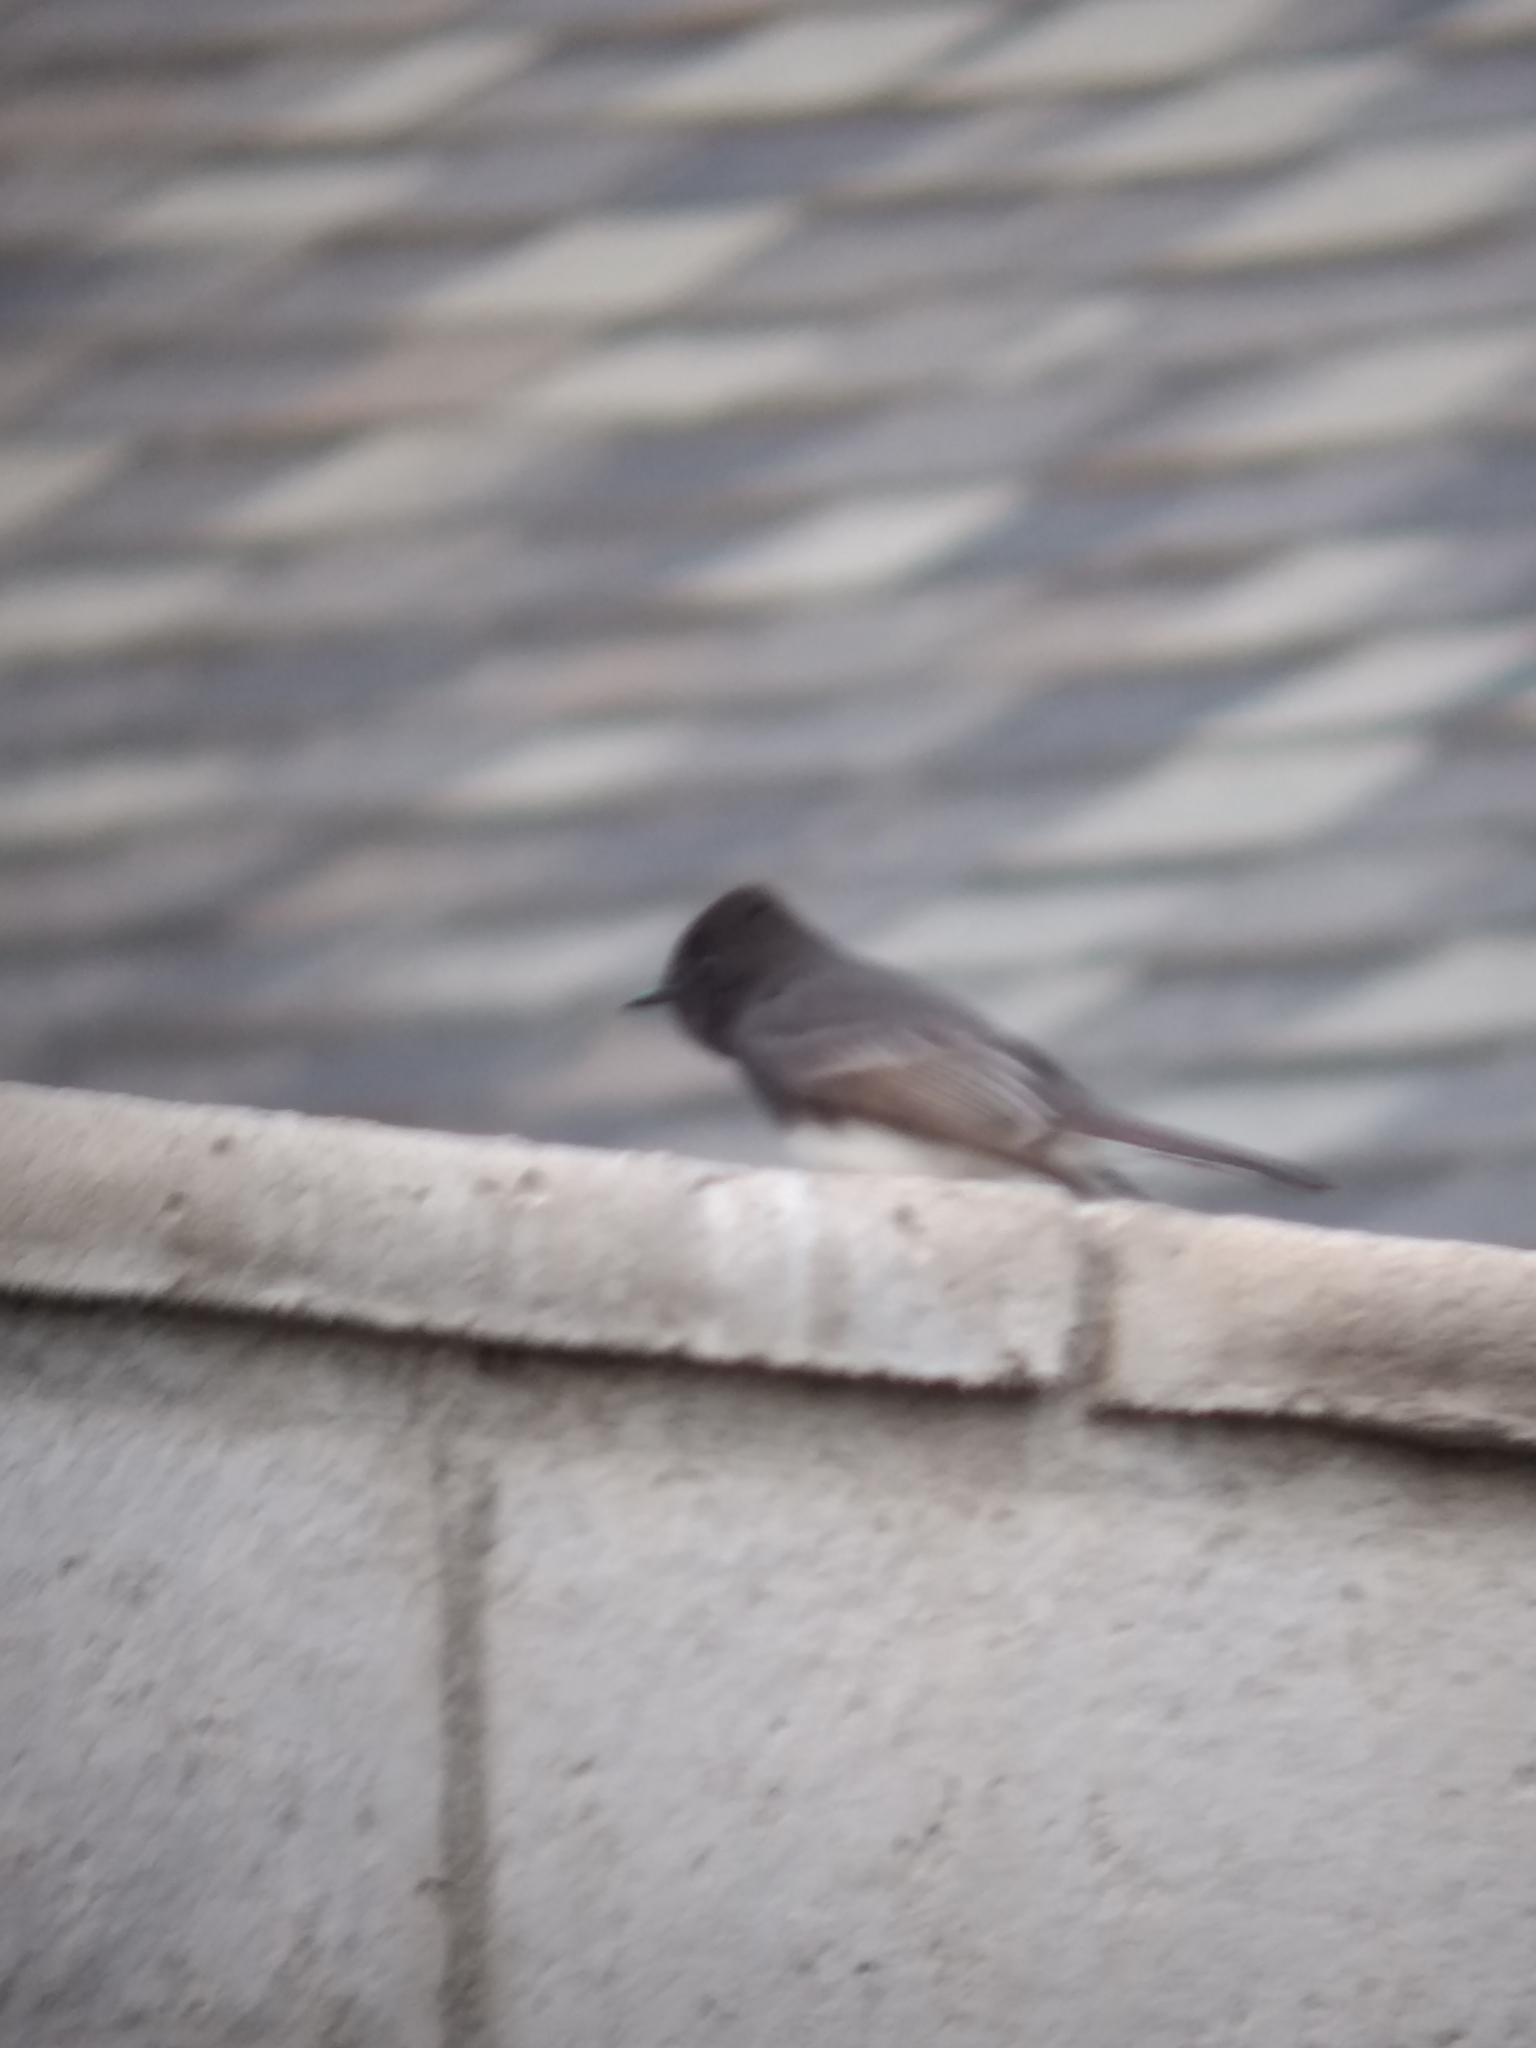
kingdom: Animalia
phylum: Chordata
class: Aves
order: Passeriformes
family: Tyrannidae
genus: Sayornis
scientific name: Sayornis nigricans
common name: Black phoebe
